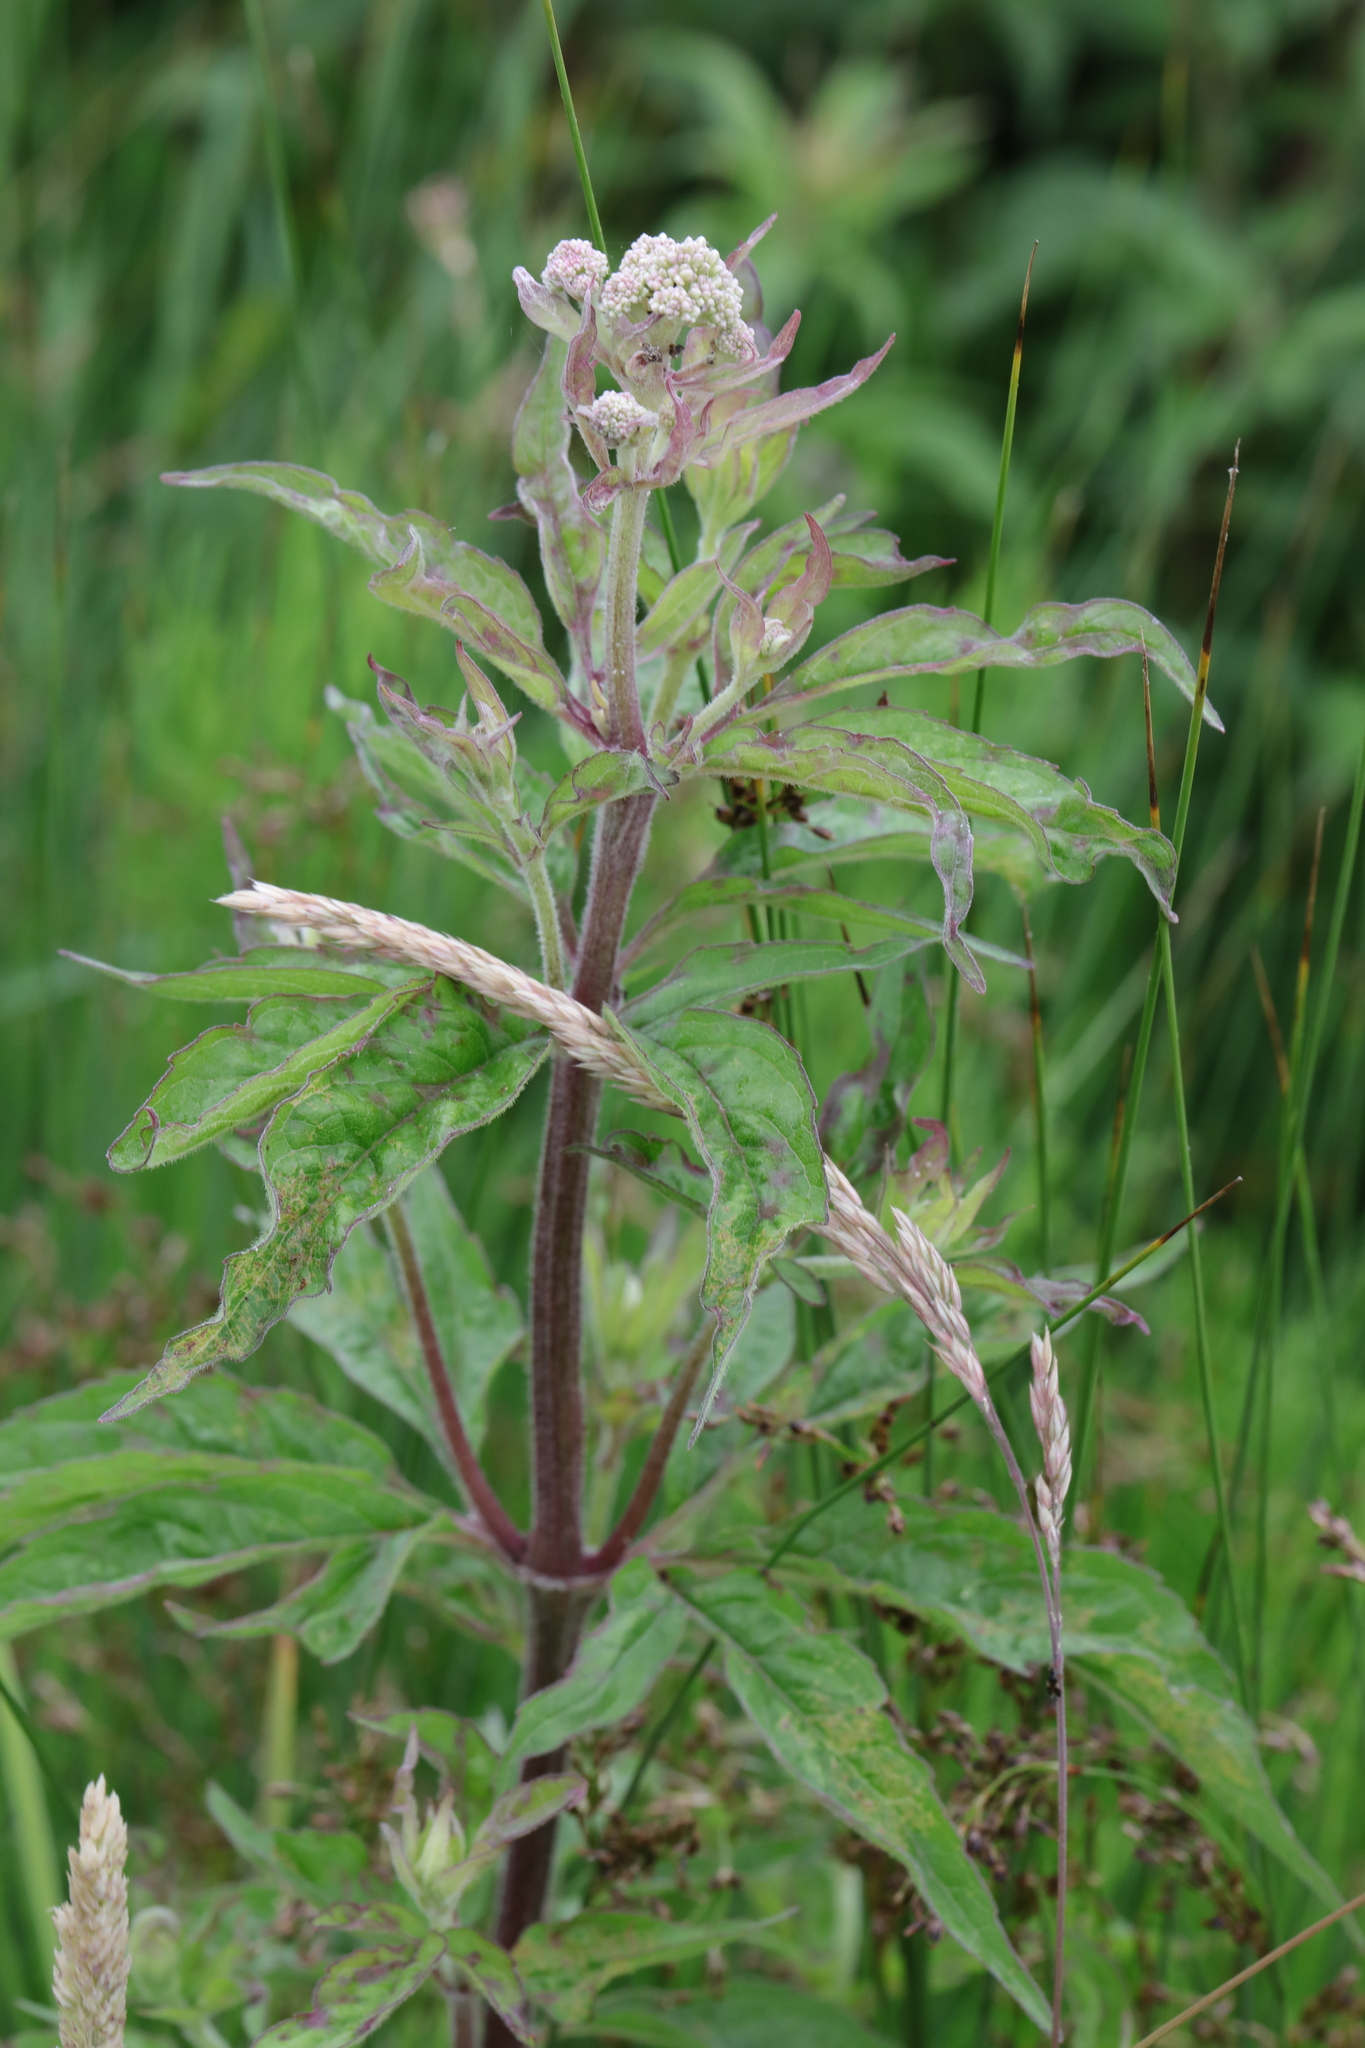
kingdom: Plantae
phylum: Tracheophyta
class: Magnoliopsida
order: Asterales
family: Asteraceae
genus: Eupatorium
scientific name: Eupatorium cannabinum
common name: Hemp-agrimony
